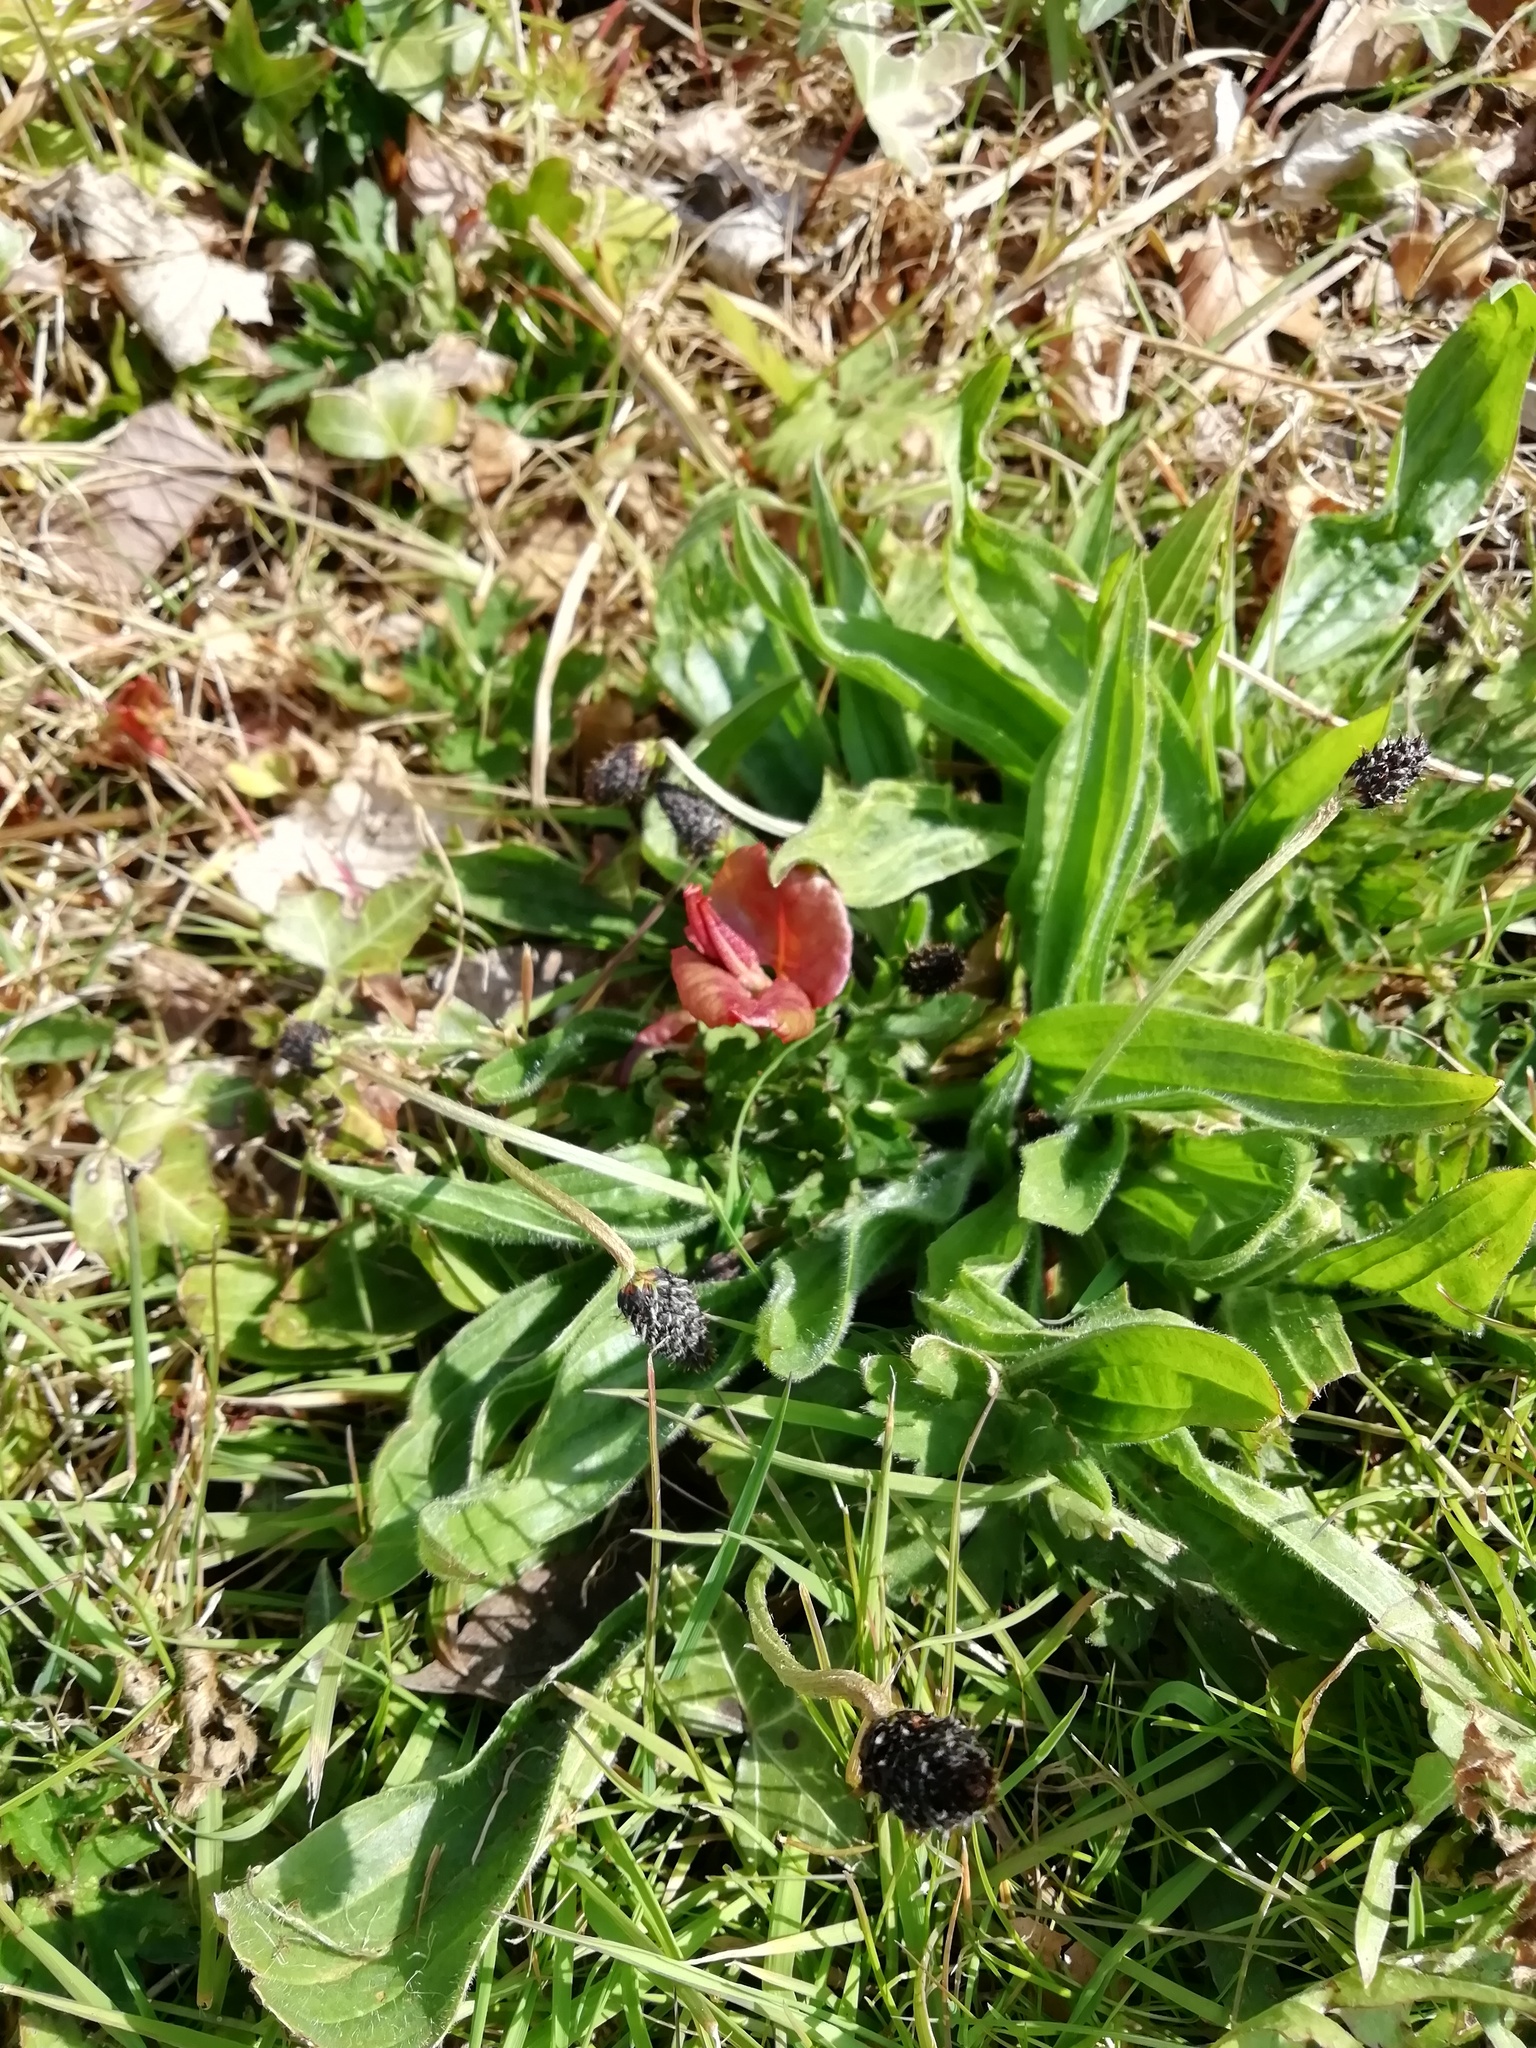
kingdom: Plantae
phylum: Tracheophyta
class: Magnoliopsida
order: Lamiales
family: Plantaginaceae
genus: Plantago
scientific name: Plantago lanceolata
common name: Ribwort plantain
